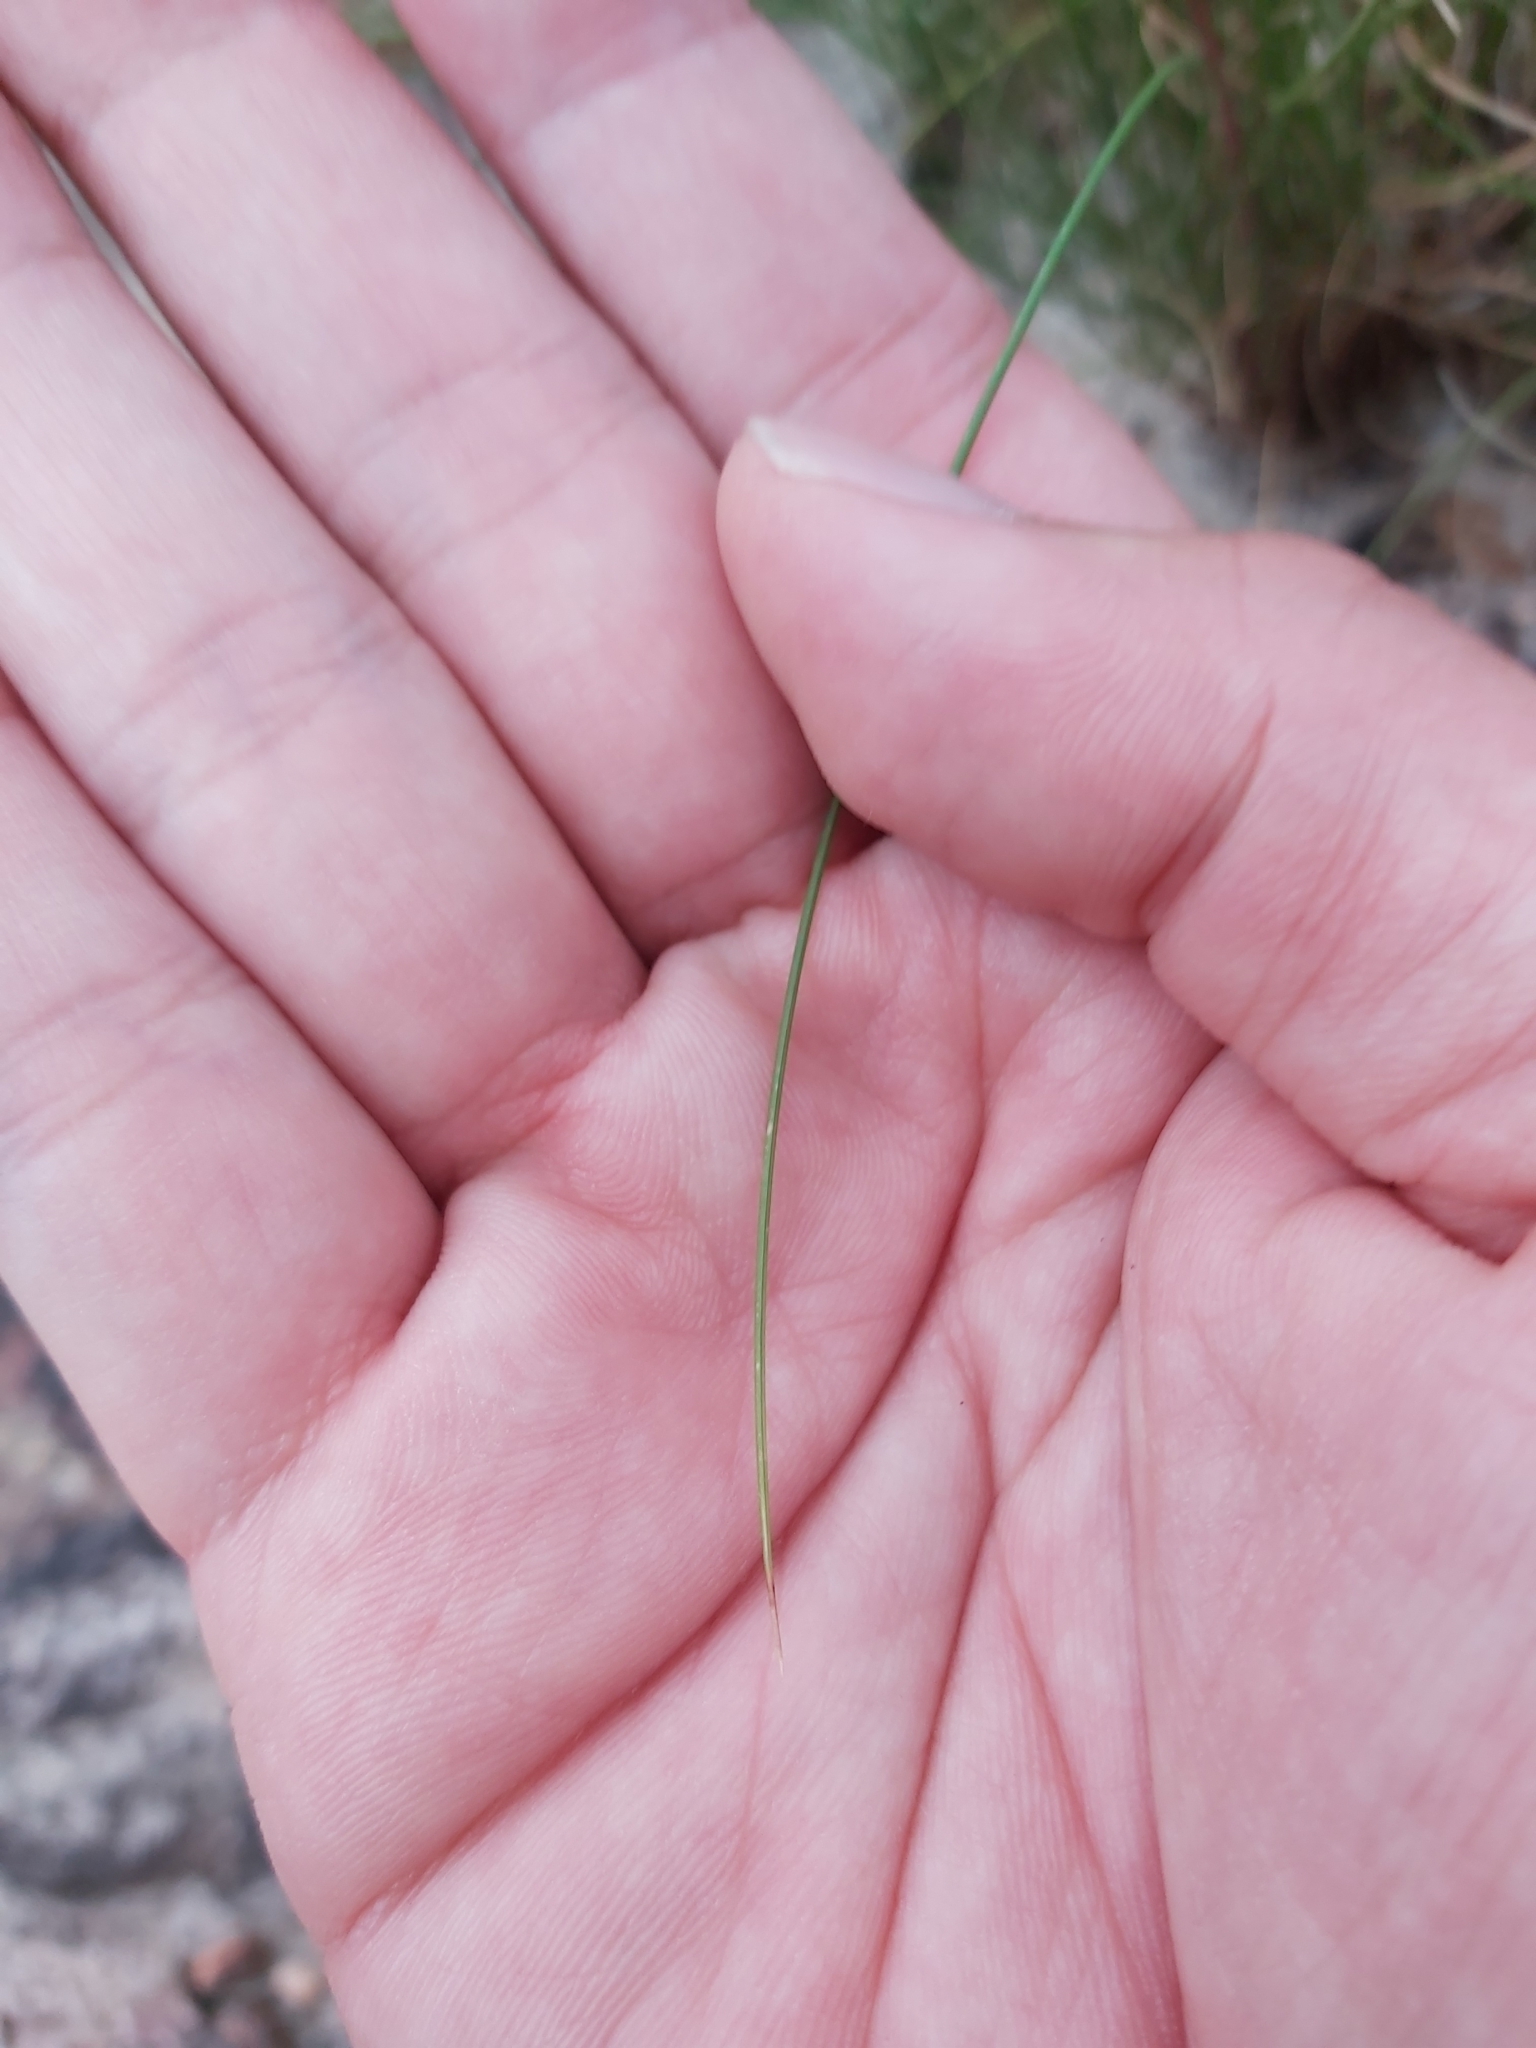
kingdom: Plantae
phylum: Tracheophyta
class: Liliopsida
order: Poales
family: Poaceae
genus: Rytidosperma
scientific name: Rytidosperma pallidum
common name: Red-anther wallaby grass
